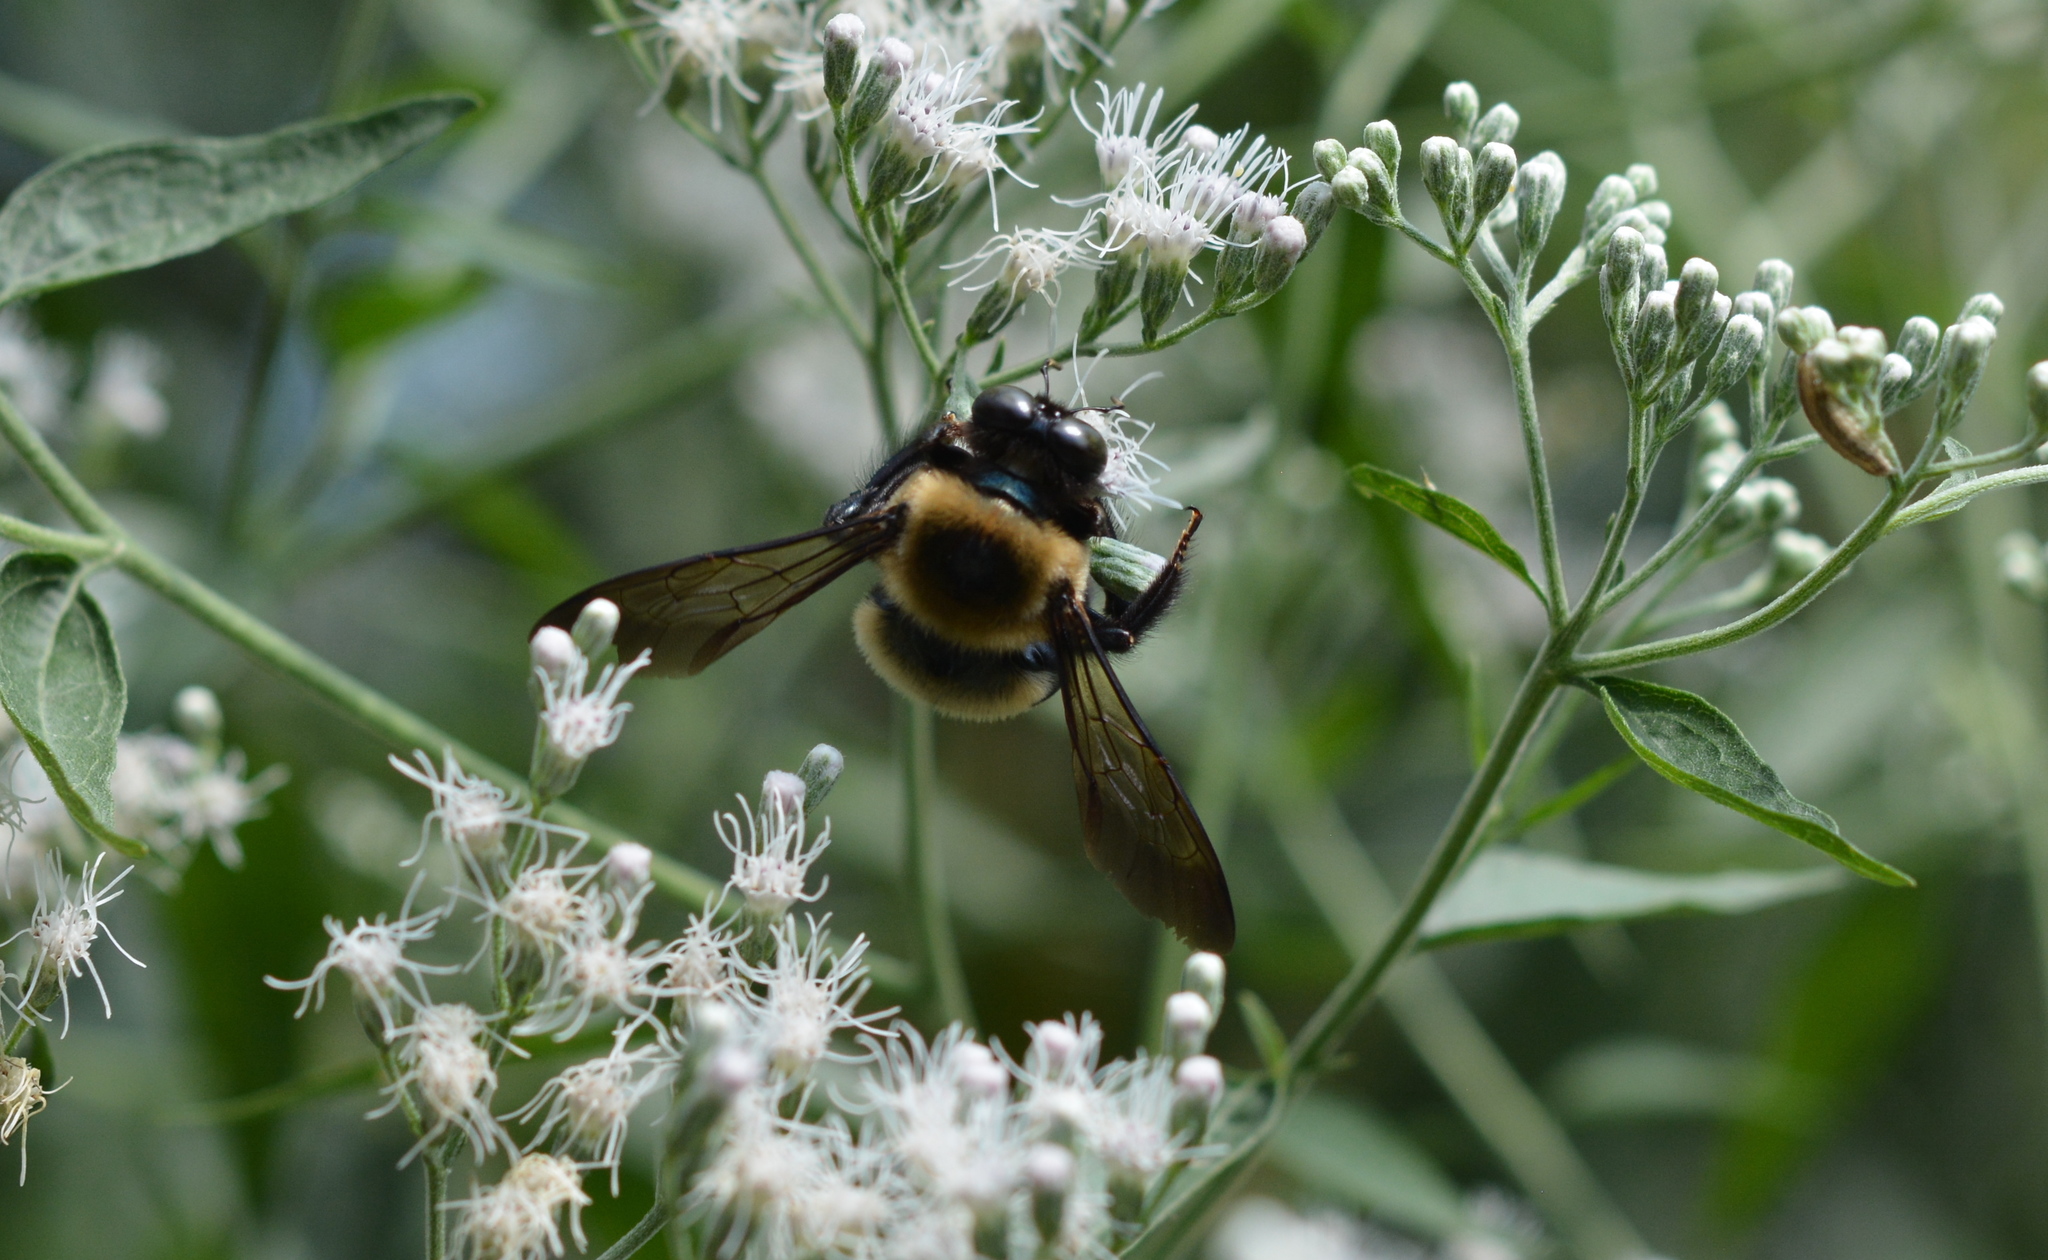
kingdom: Animalia
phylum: Arthropoda
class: Insecta
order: Hymenoptera
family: Apidae
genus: Xylocopa
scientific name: Xylocopa virginica
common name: Carpenter bee
